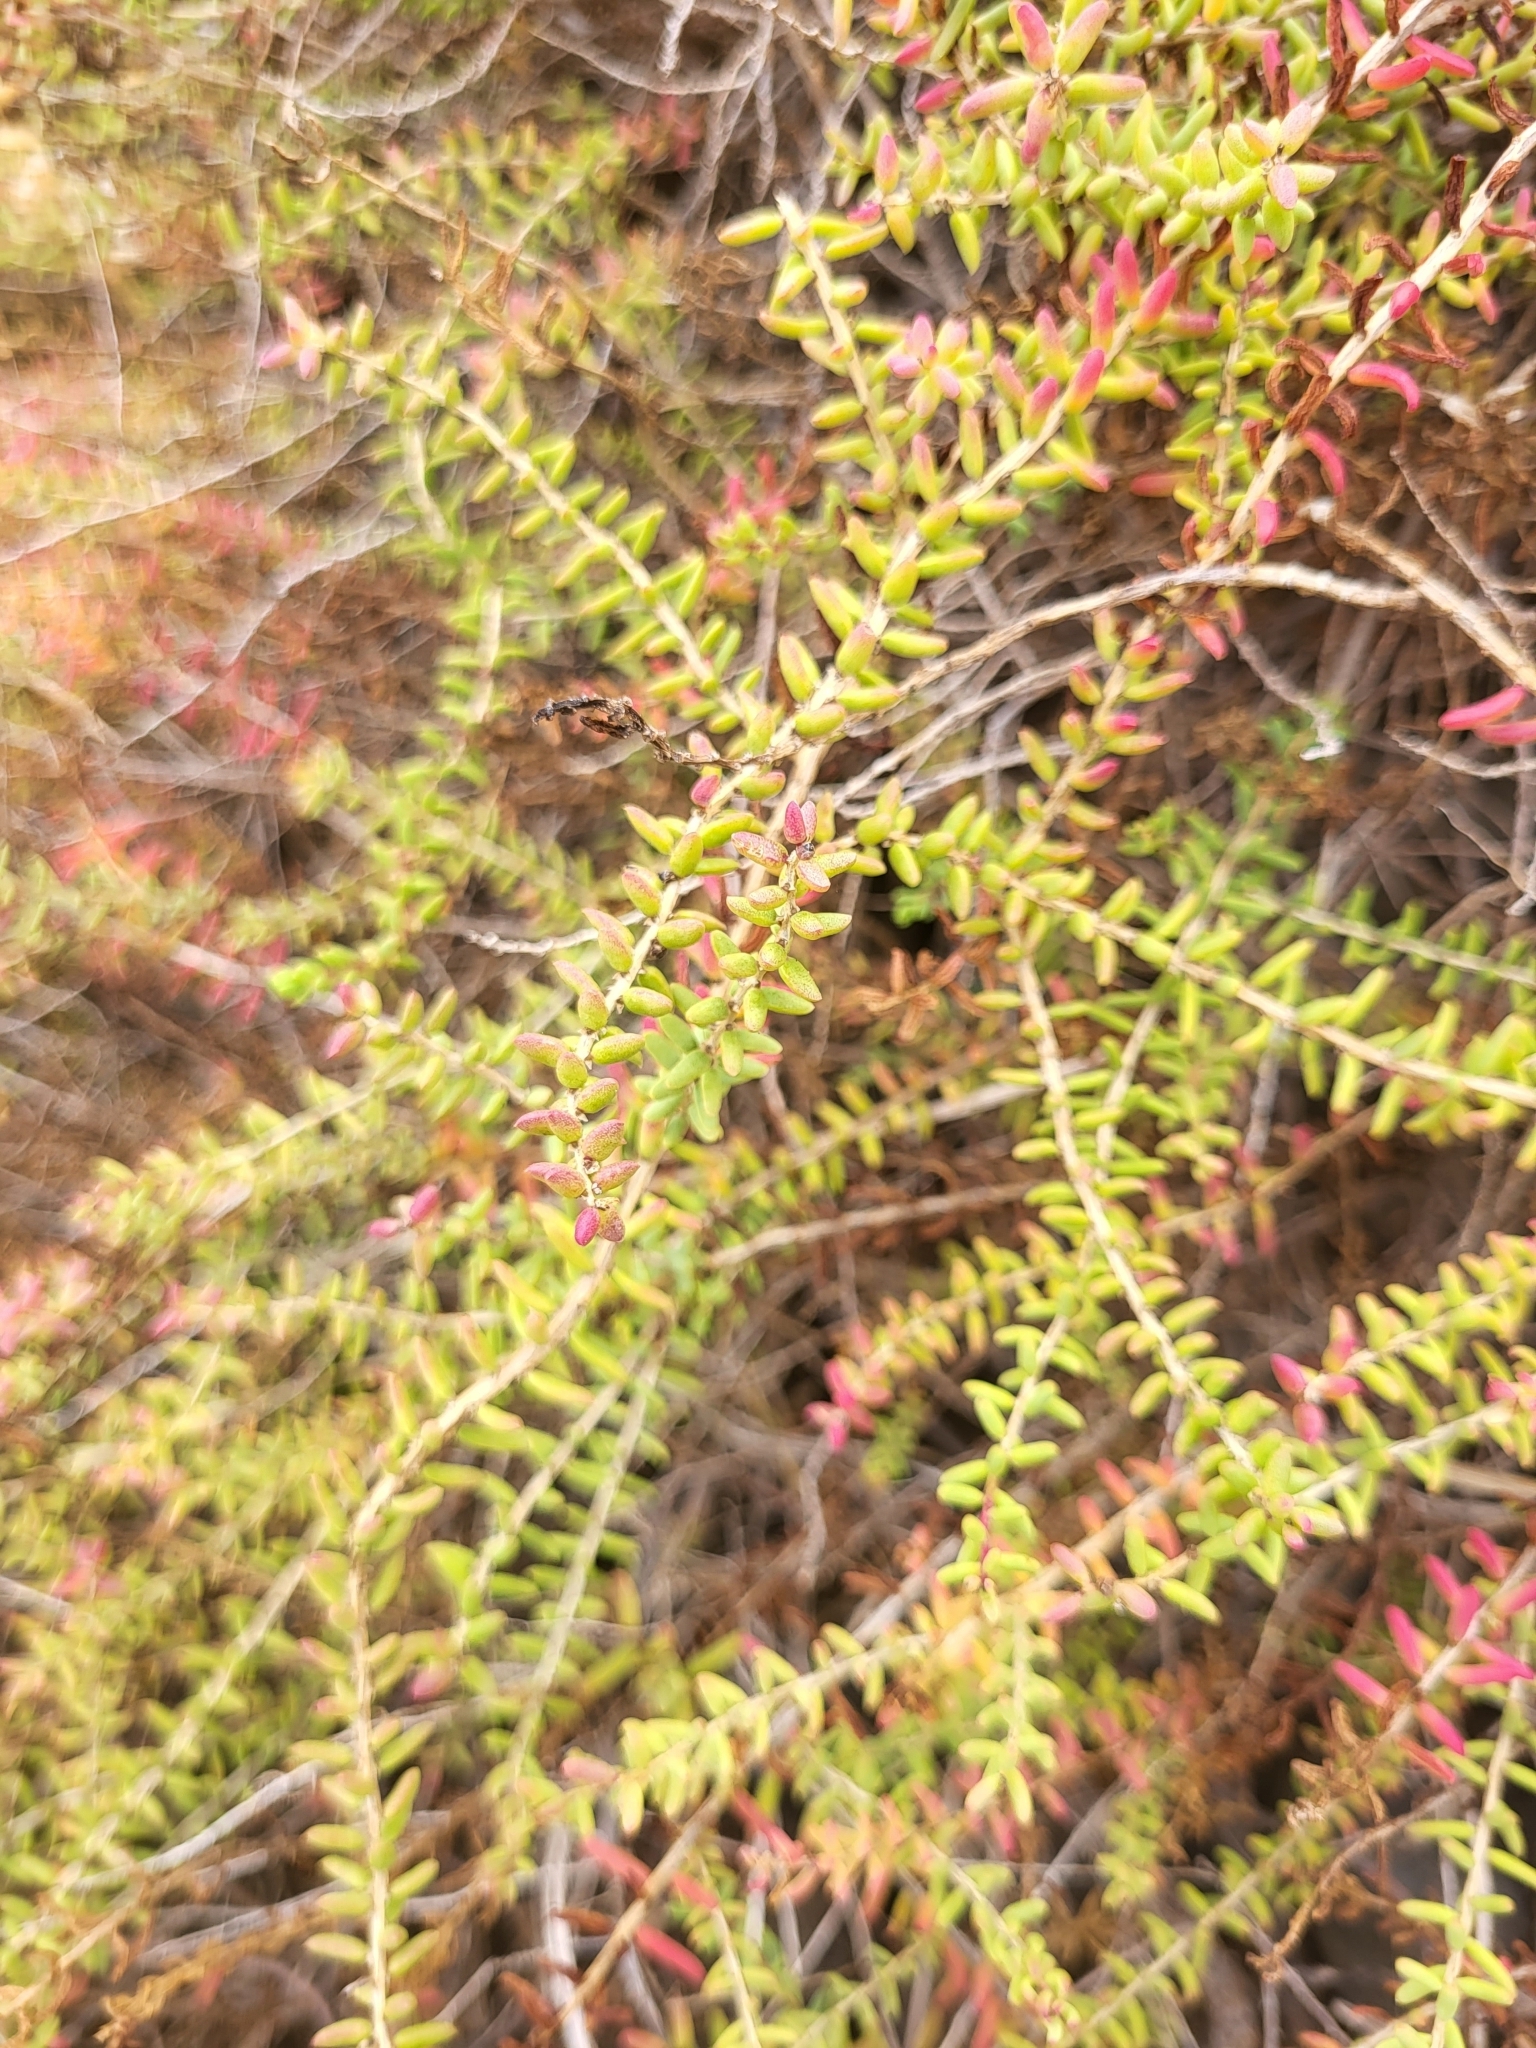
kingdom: Plantae
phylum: Tracheophyta
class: Magnoliopsida
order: Caryophyllales
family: Amaranthaceae
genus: Suaeda
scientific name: Suaeda vera
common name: Shrubby sea-blite
